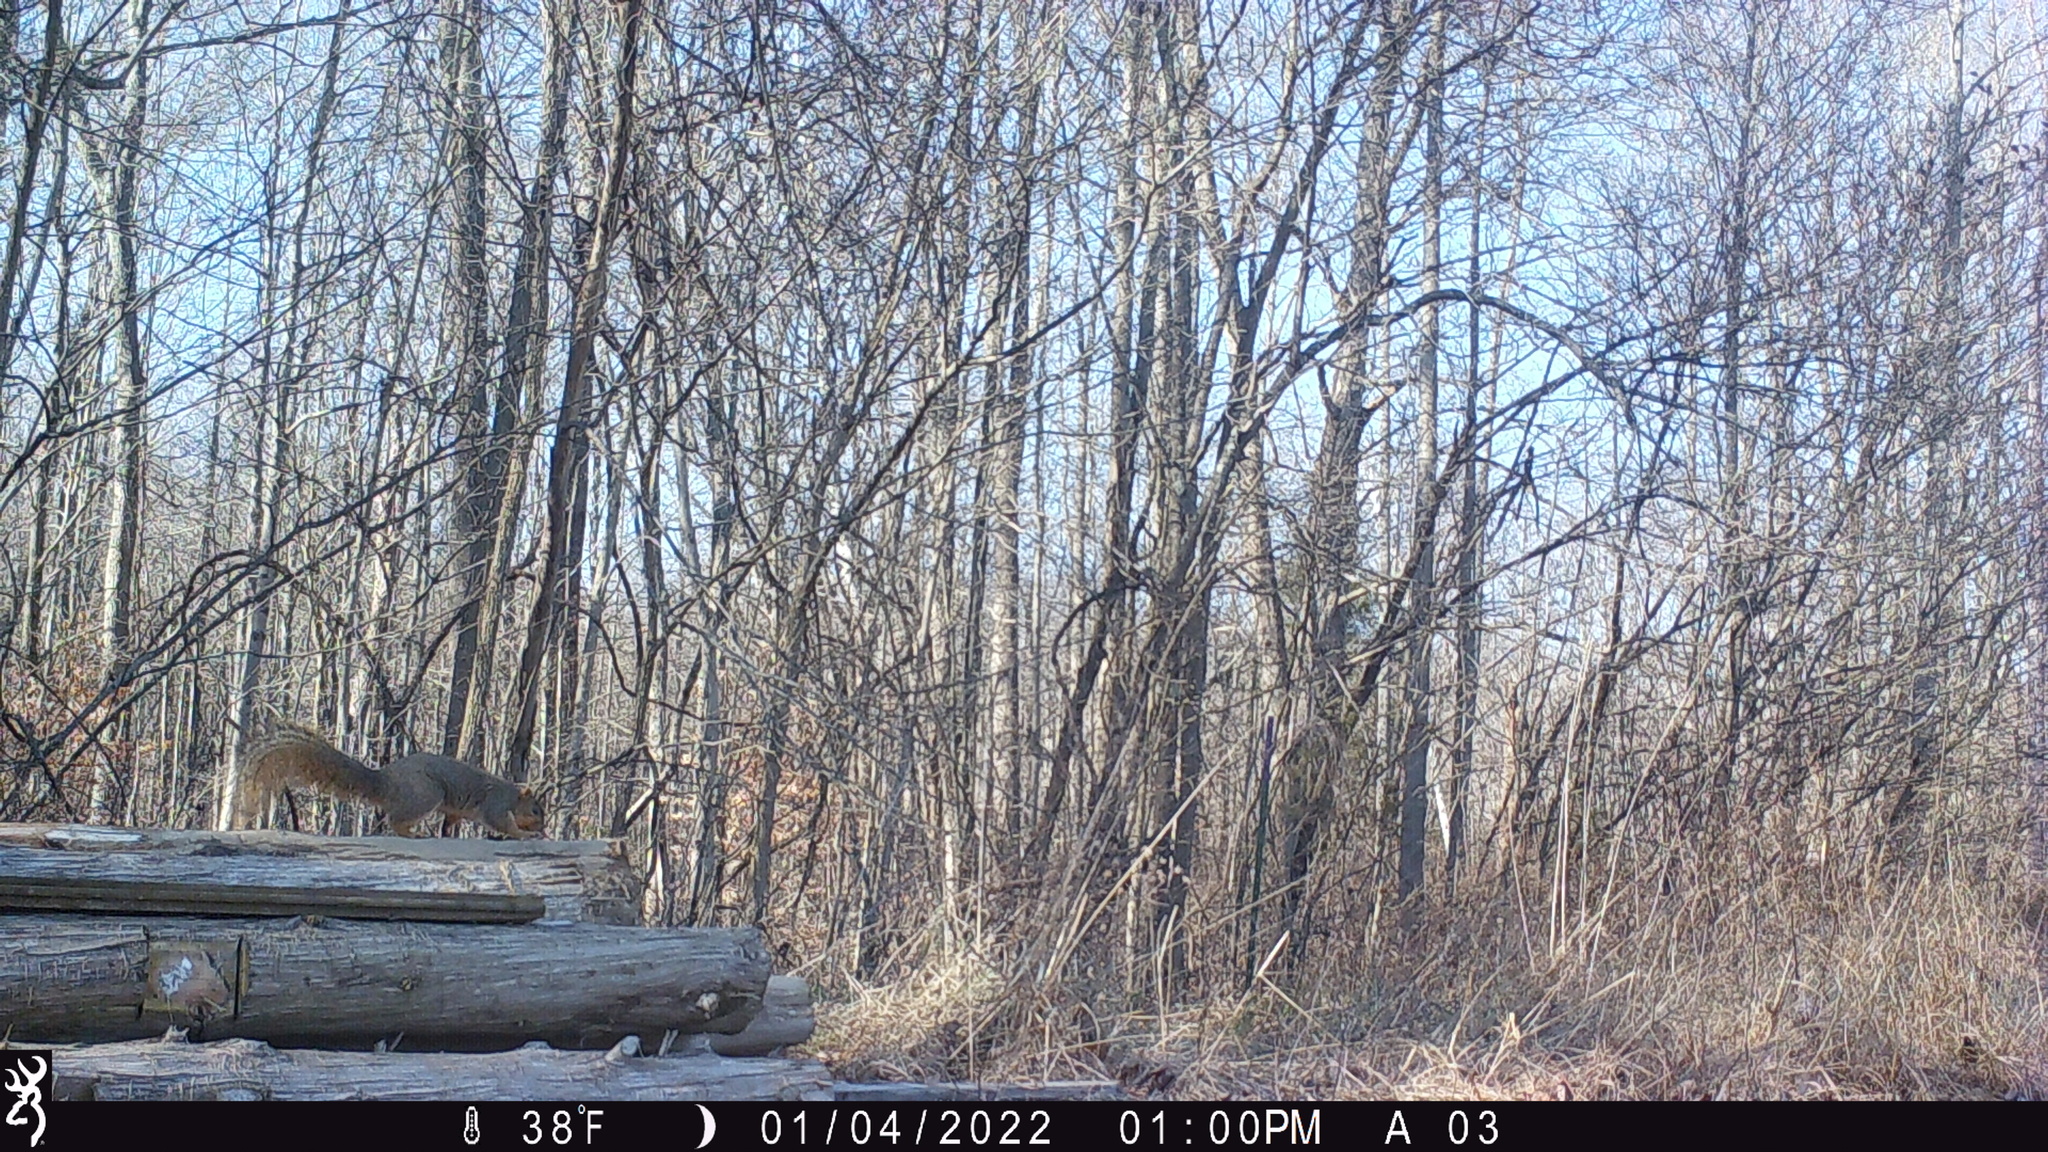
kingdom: Animalia
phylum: Chordata
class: Mammalia
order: Rodentia
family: Sciuridae
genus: Sciurus
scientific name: Sciurus niger
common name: Fox squirrel
